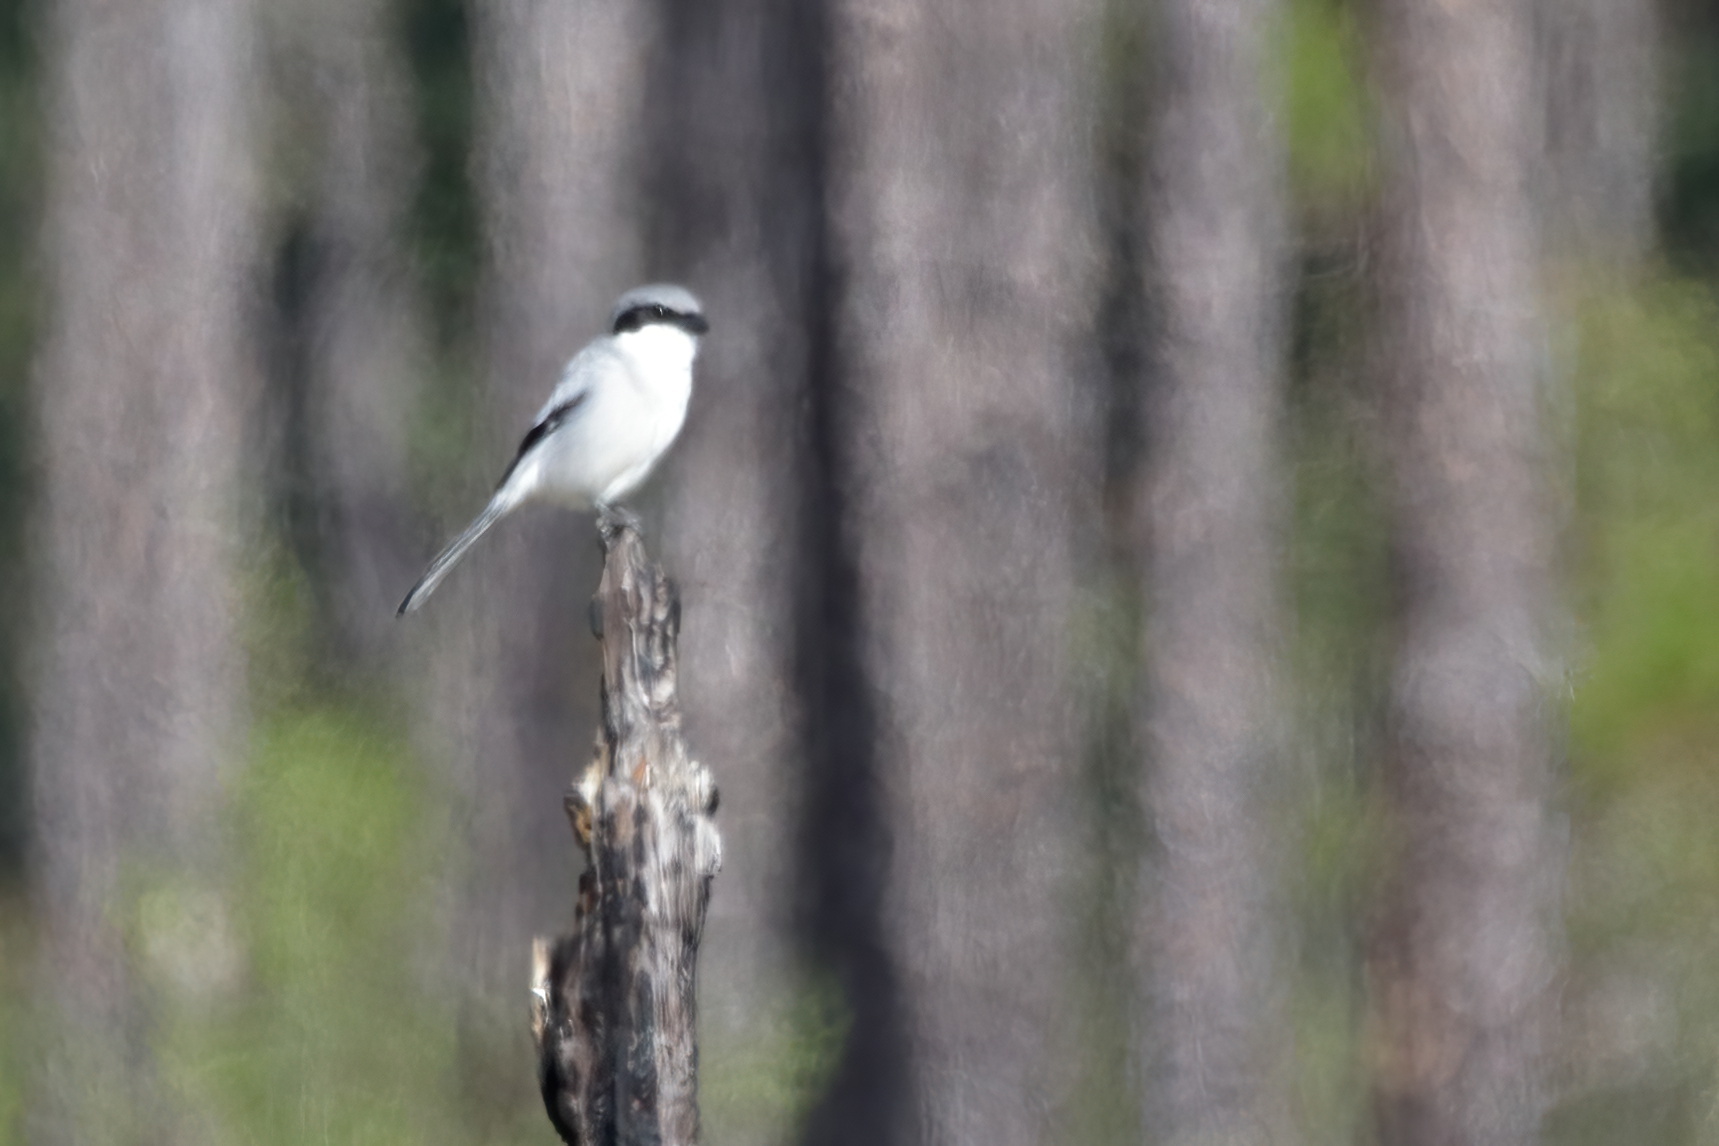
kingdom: Animalia
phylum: Chordata
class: Aves
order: Passeriformes
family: Laniidae
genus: Lanius
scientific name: Lanius ludovicianus
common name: Loggerhead shrike
